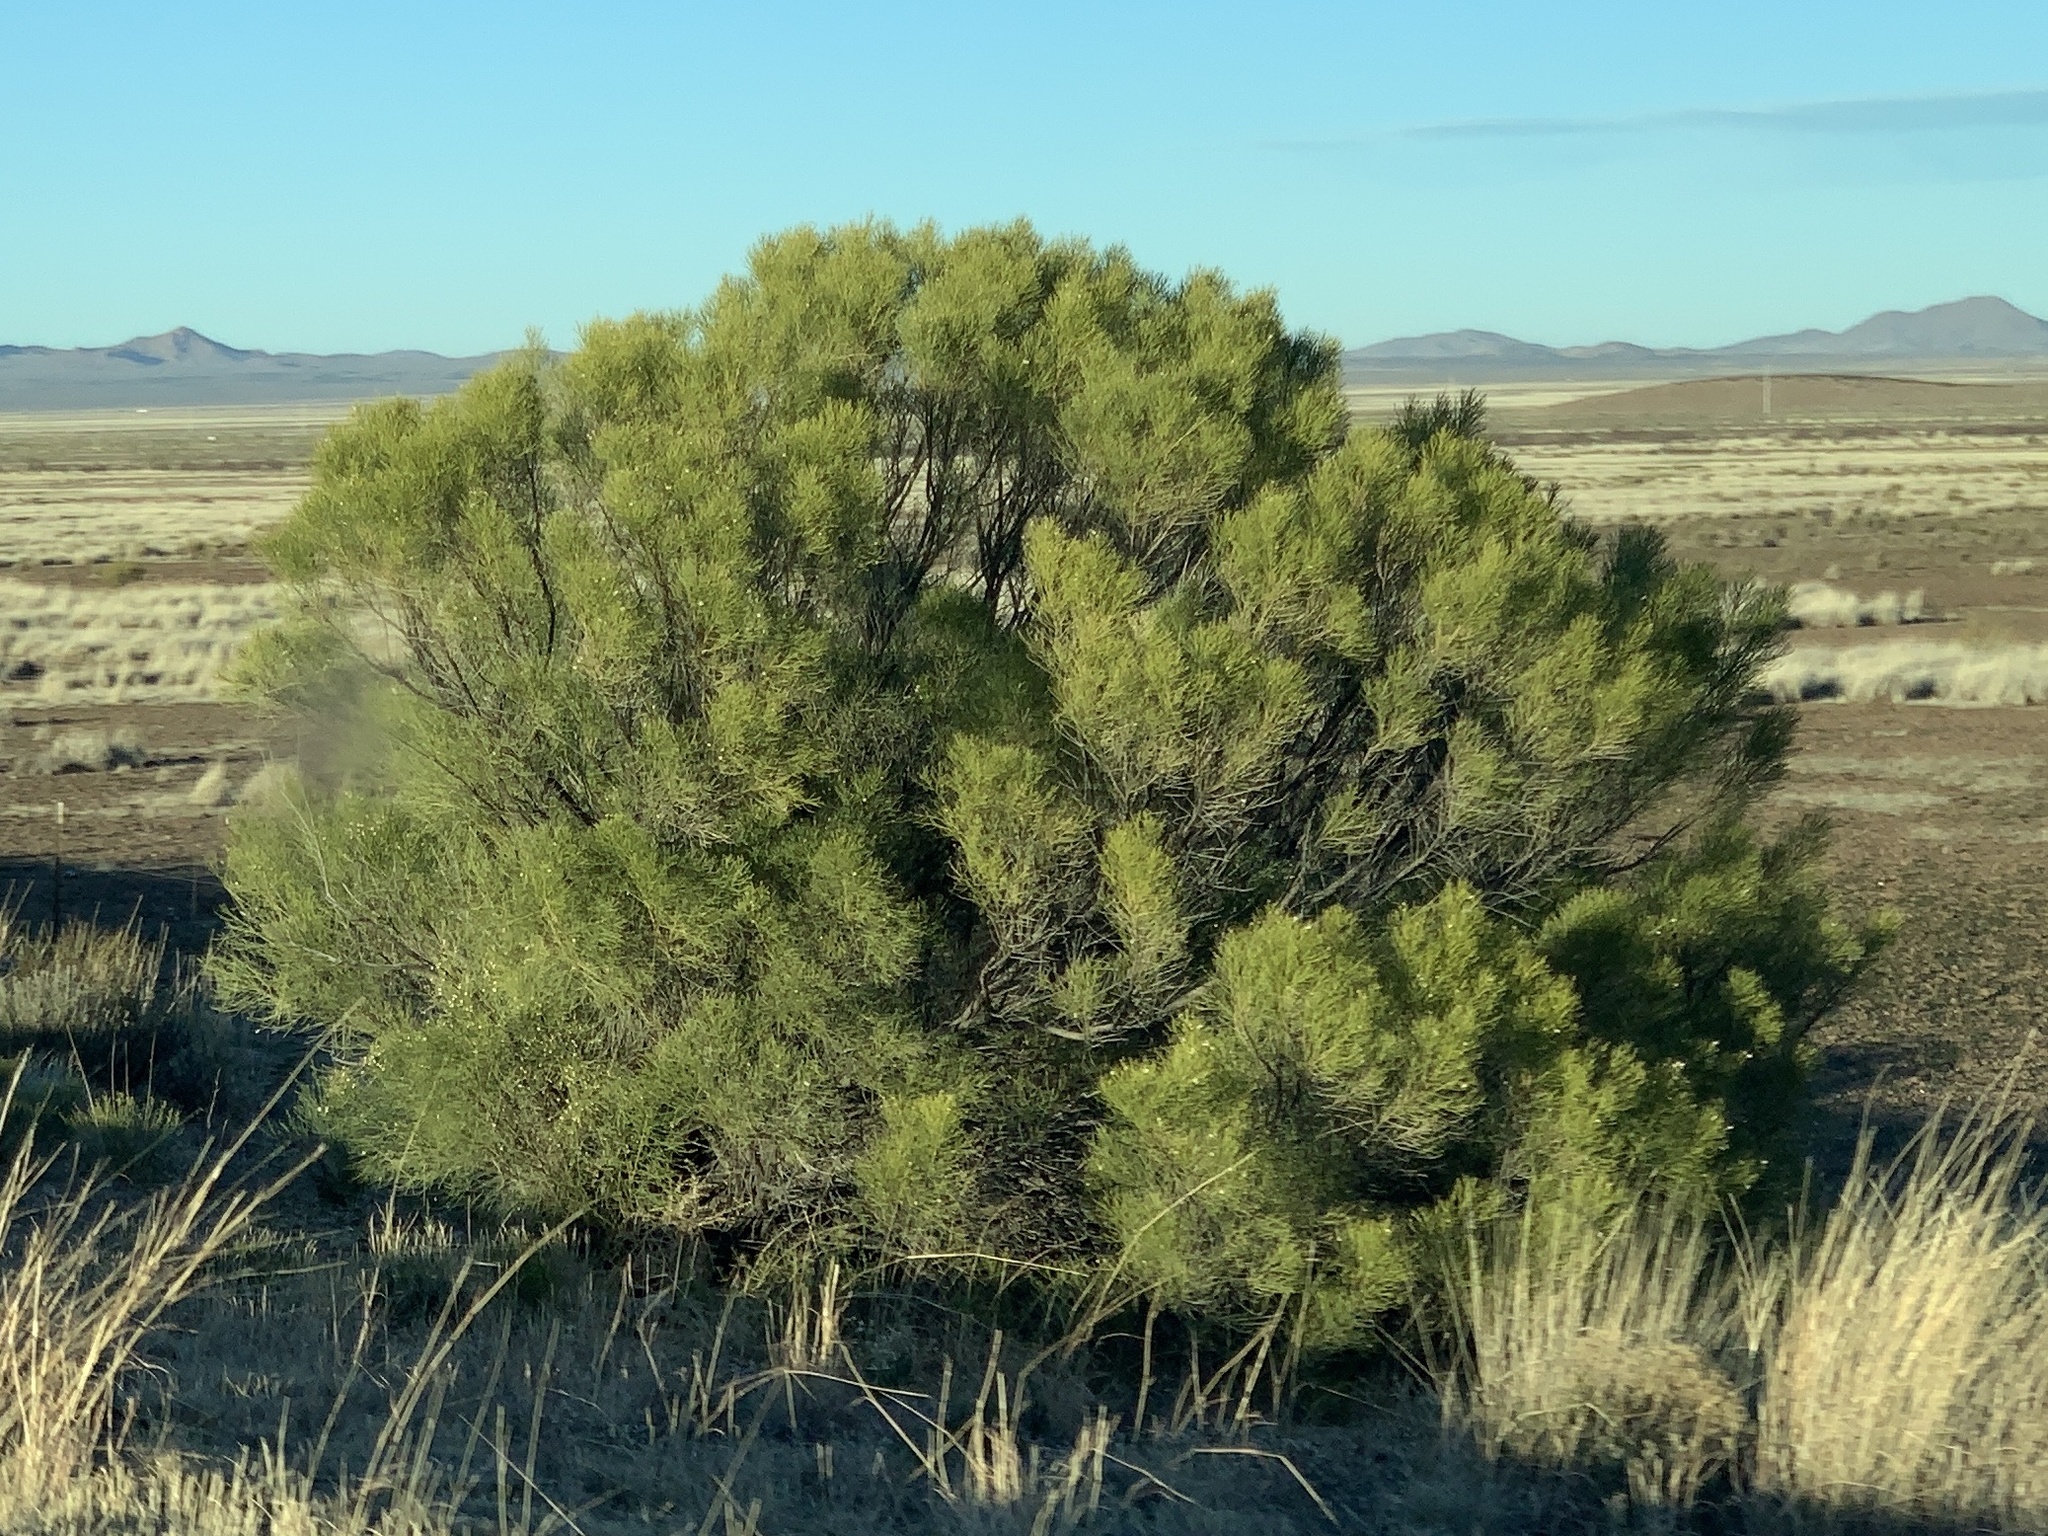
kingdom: Plantae
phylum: Tracheophyta
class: Magnoliopsida
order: Asterales
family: Asteraceae
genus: Baccharis
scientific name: Baccharis sarothroides
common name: Desert-broom
